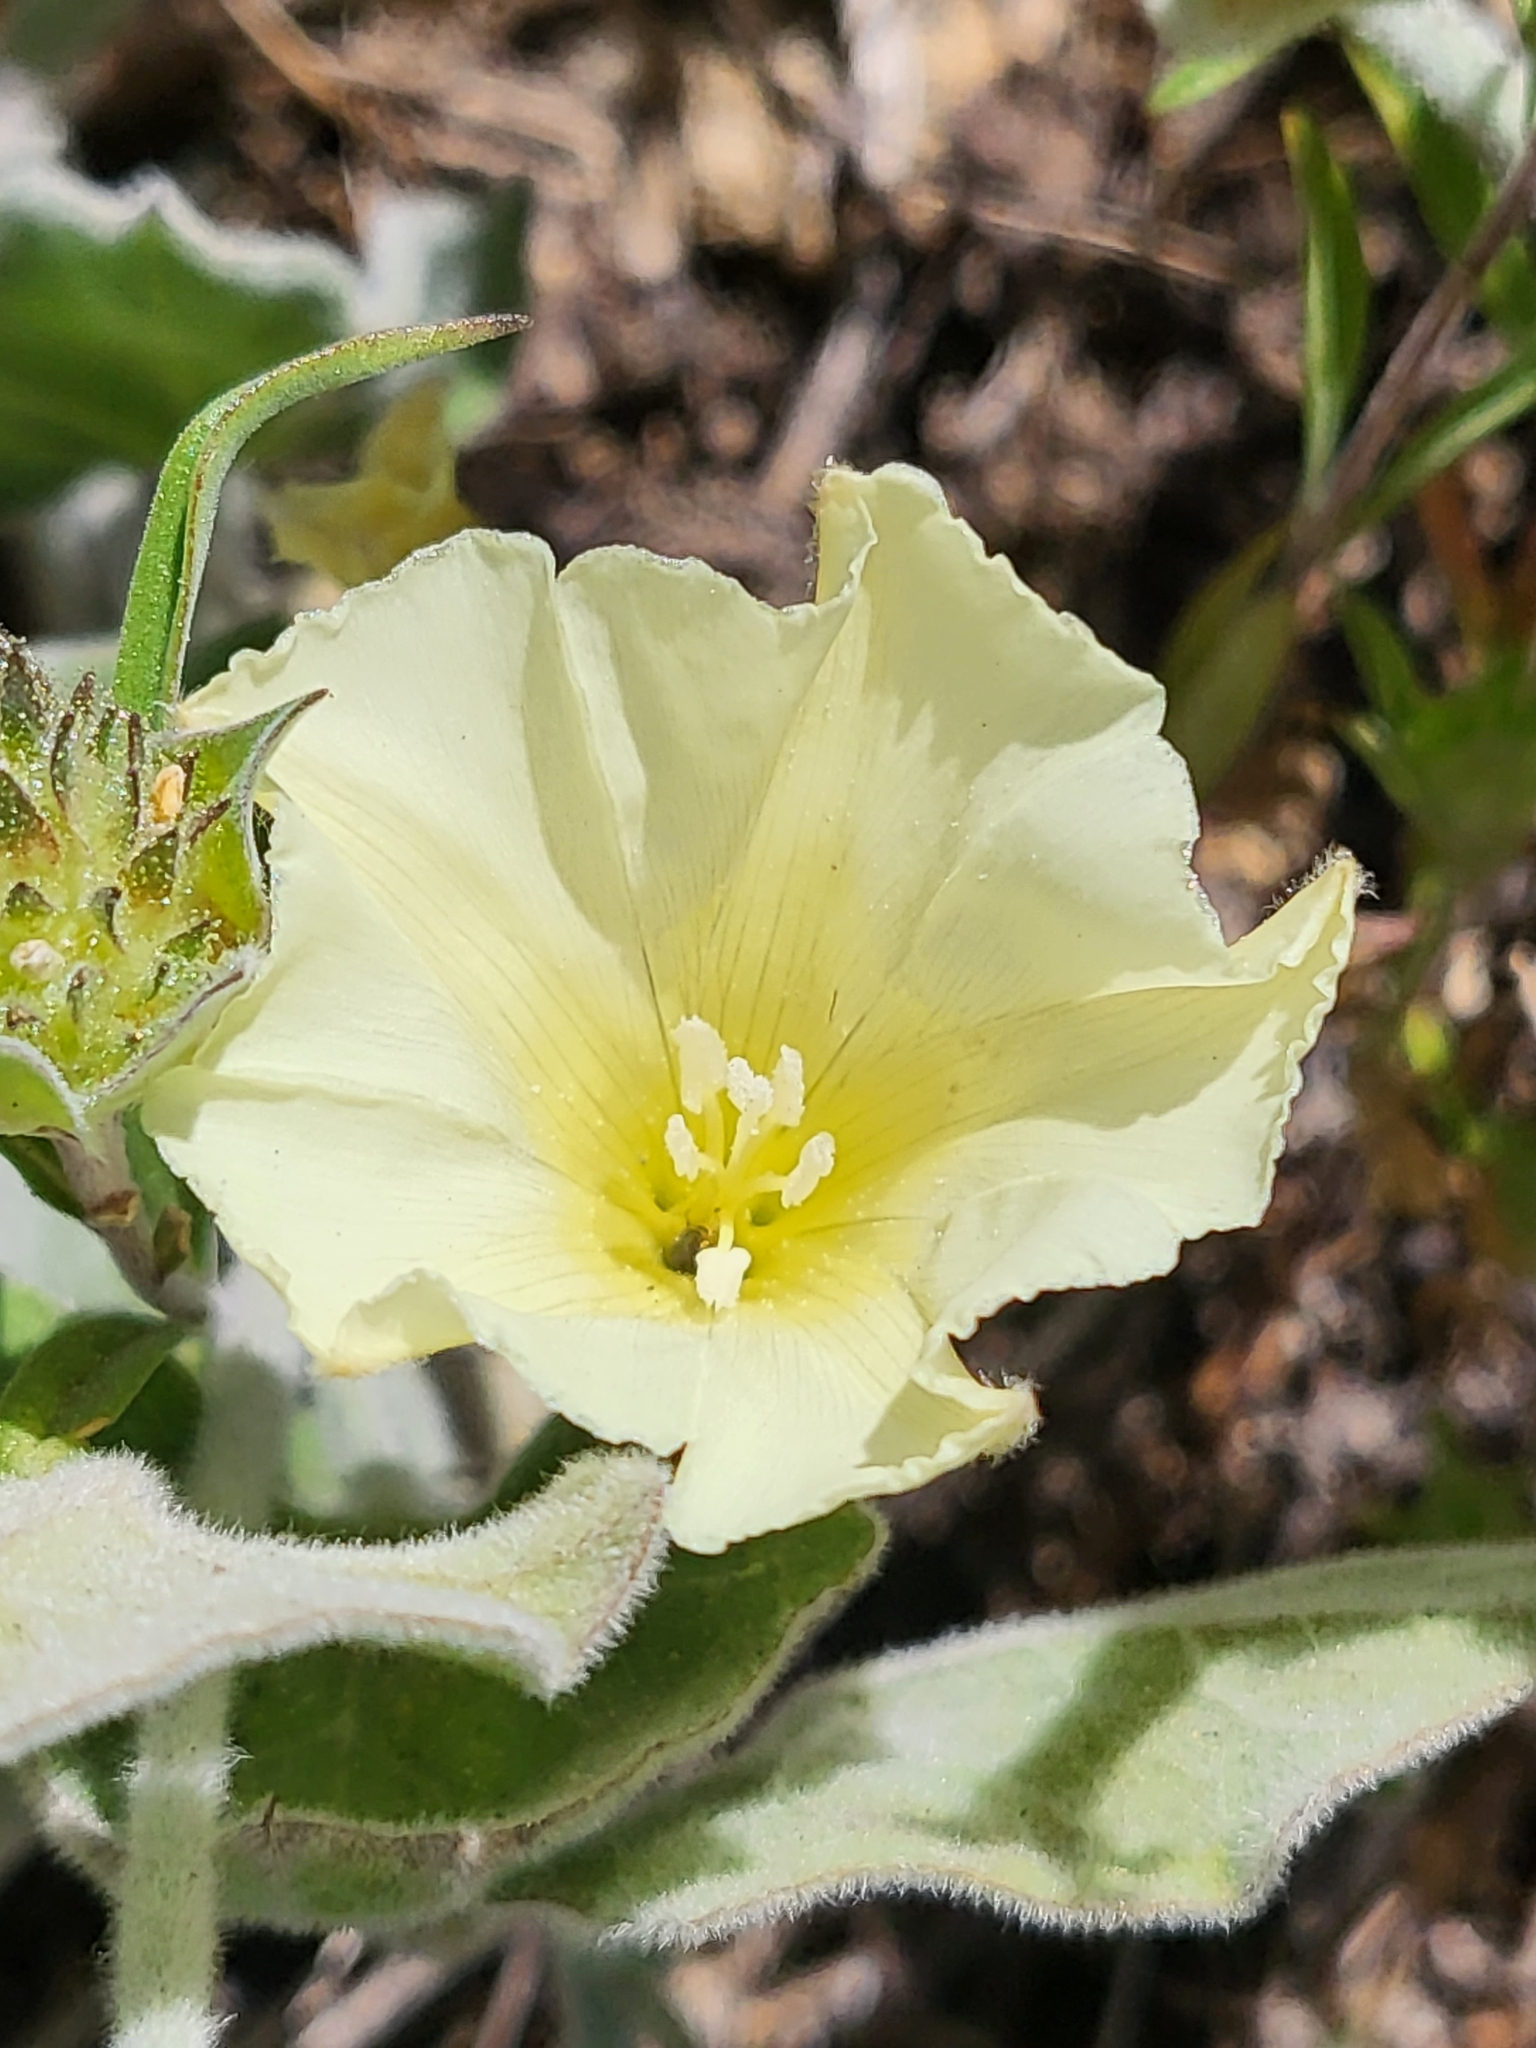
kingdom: Plantae
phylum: Tracheophyta
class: Magnoliopsida
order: Solanales
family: Convolvulaceae
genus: Calystegia
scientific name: Calystegia malacophylla
